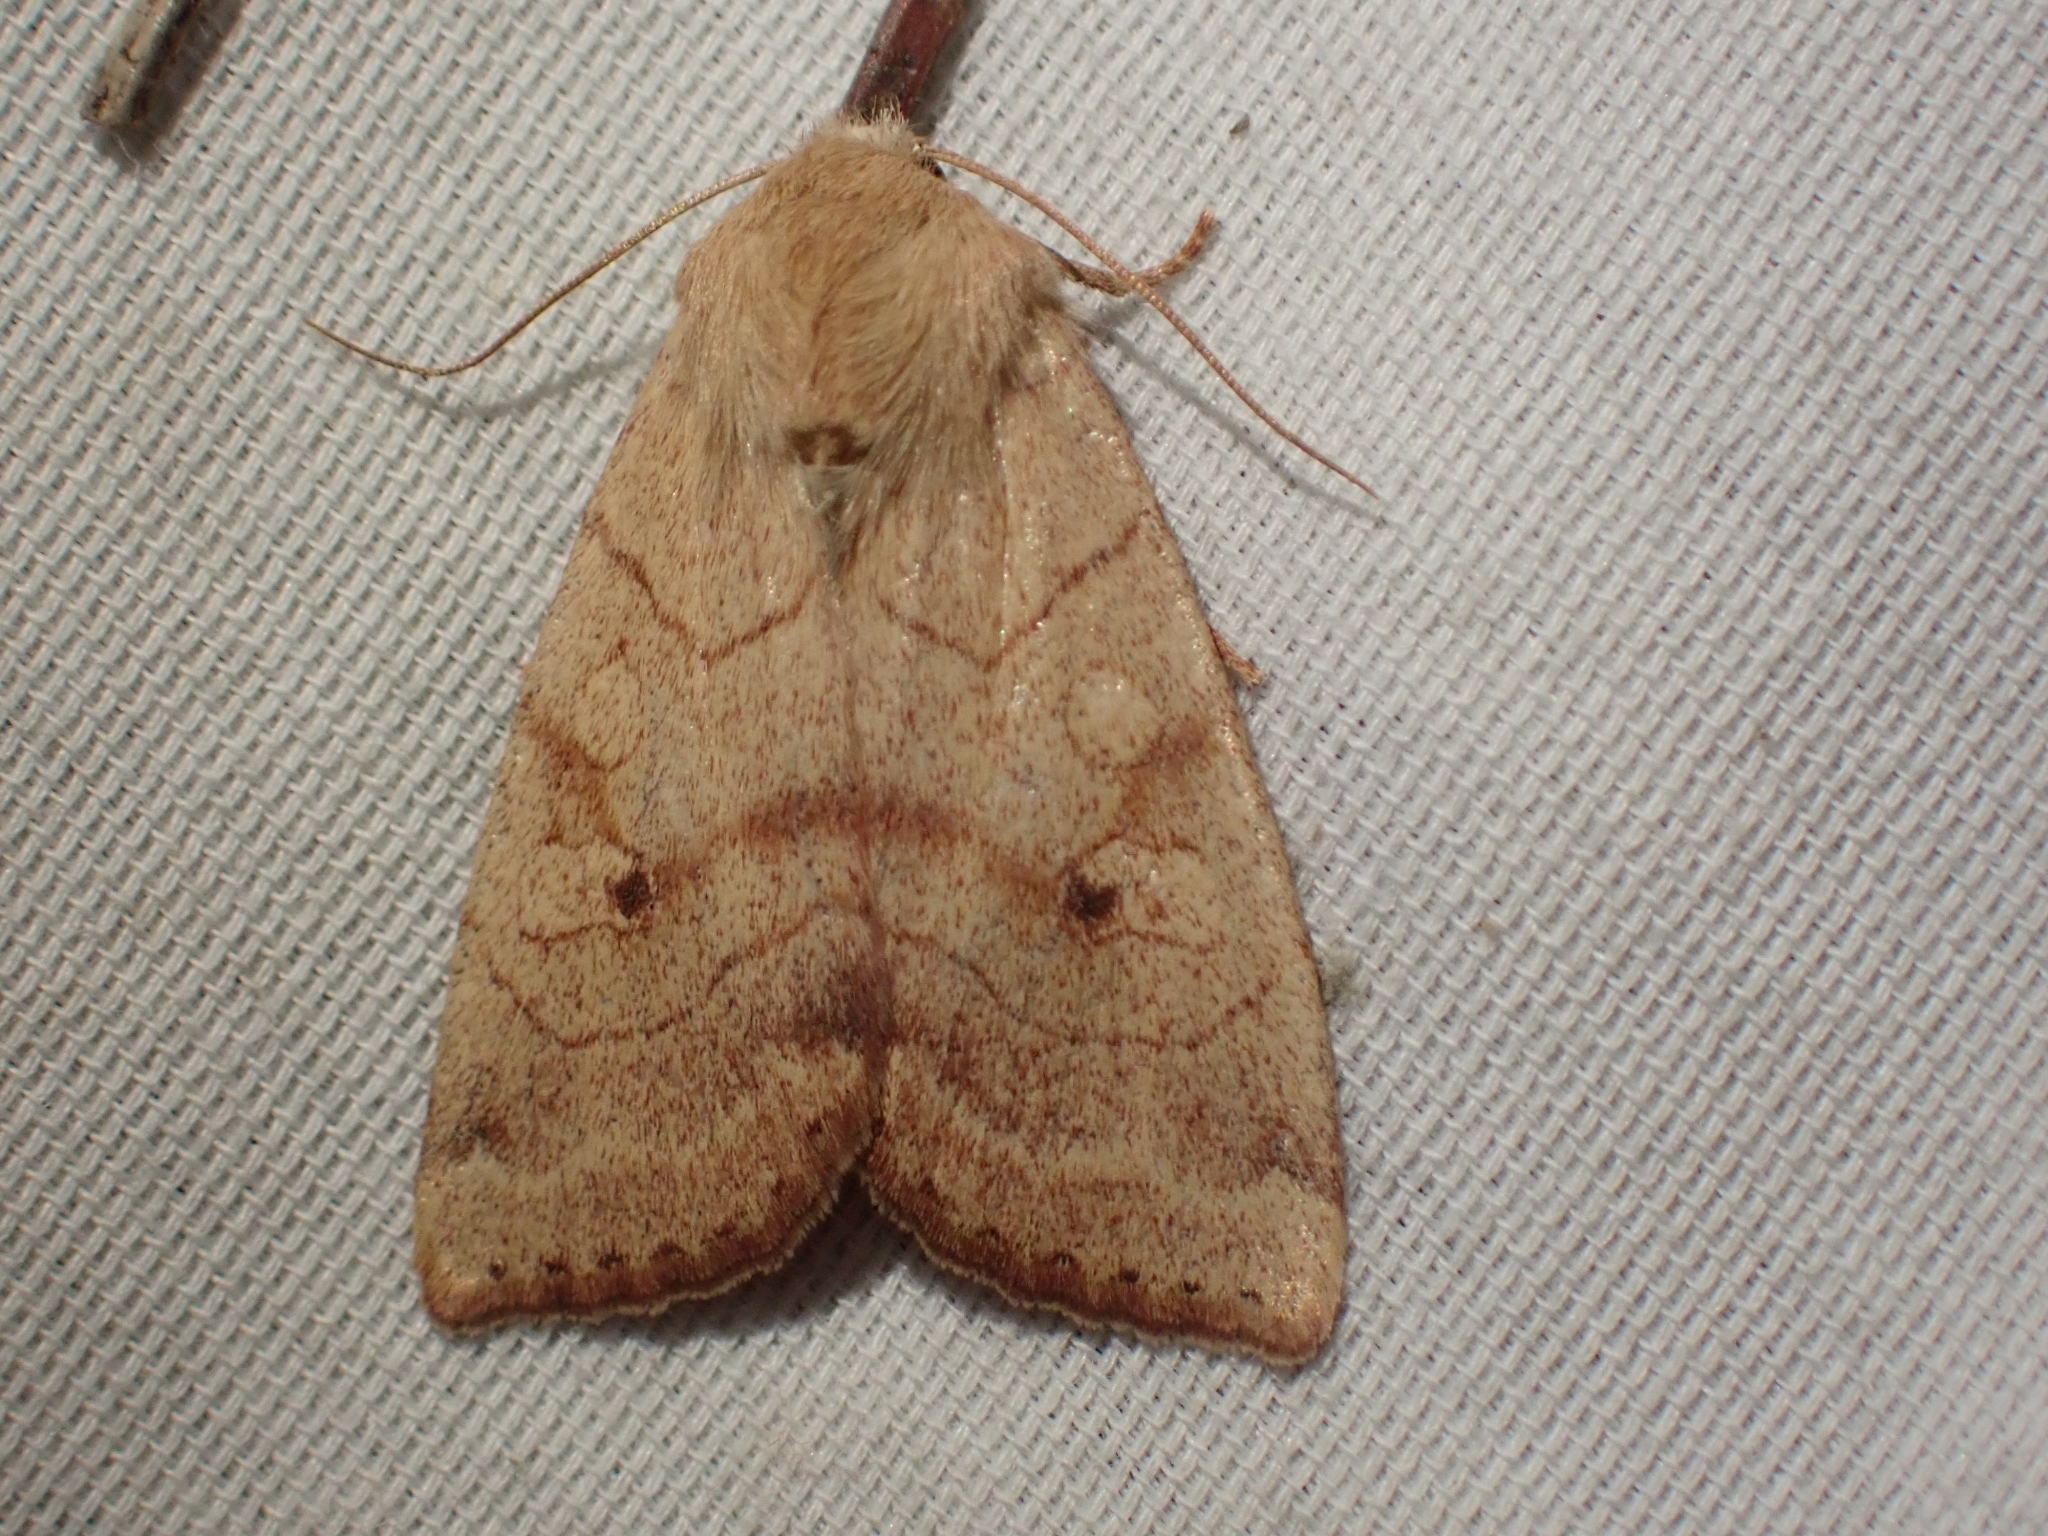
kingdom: Animalia
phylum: Arthropoda
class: Insecta
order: Lepidoptera
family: Noctuidae
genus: Enargia
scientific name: Enargia infumata
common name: Smoked sallow
